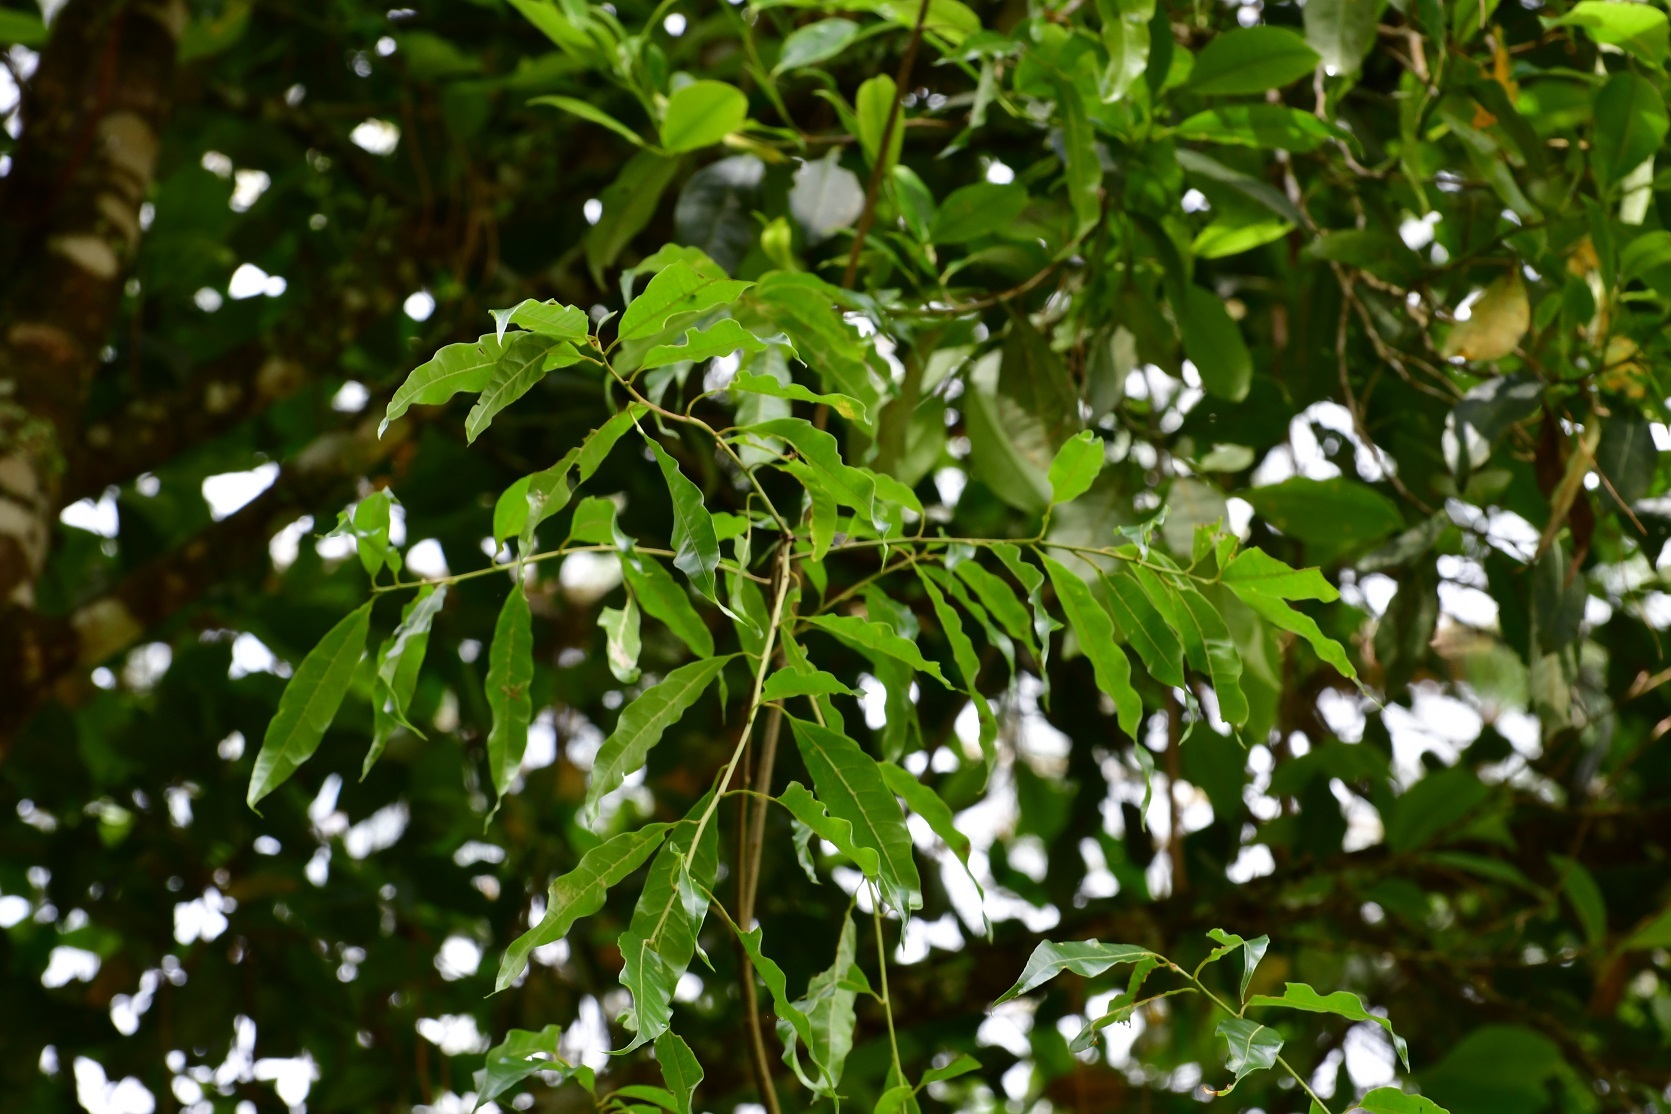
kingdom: Plantae
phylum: Tracheophyta
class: Magnoliopsida
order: Fagales
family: Fagaceae
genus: Quercus
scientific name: Quercus laurina
